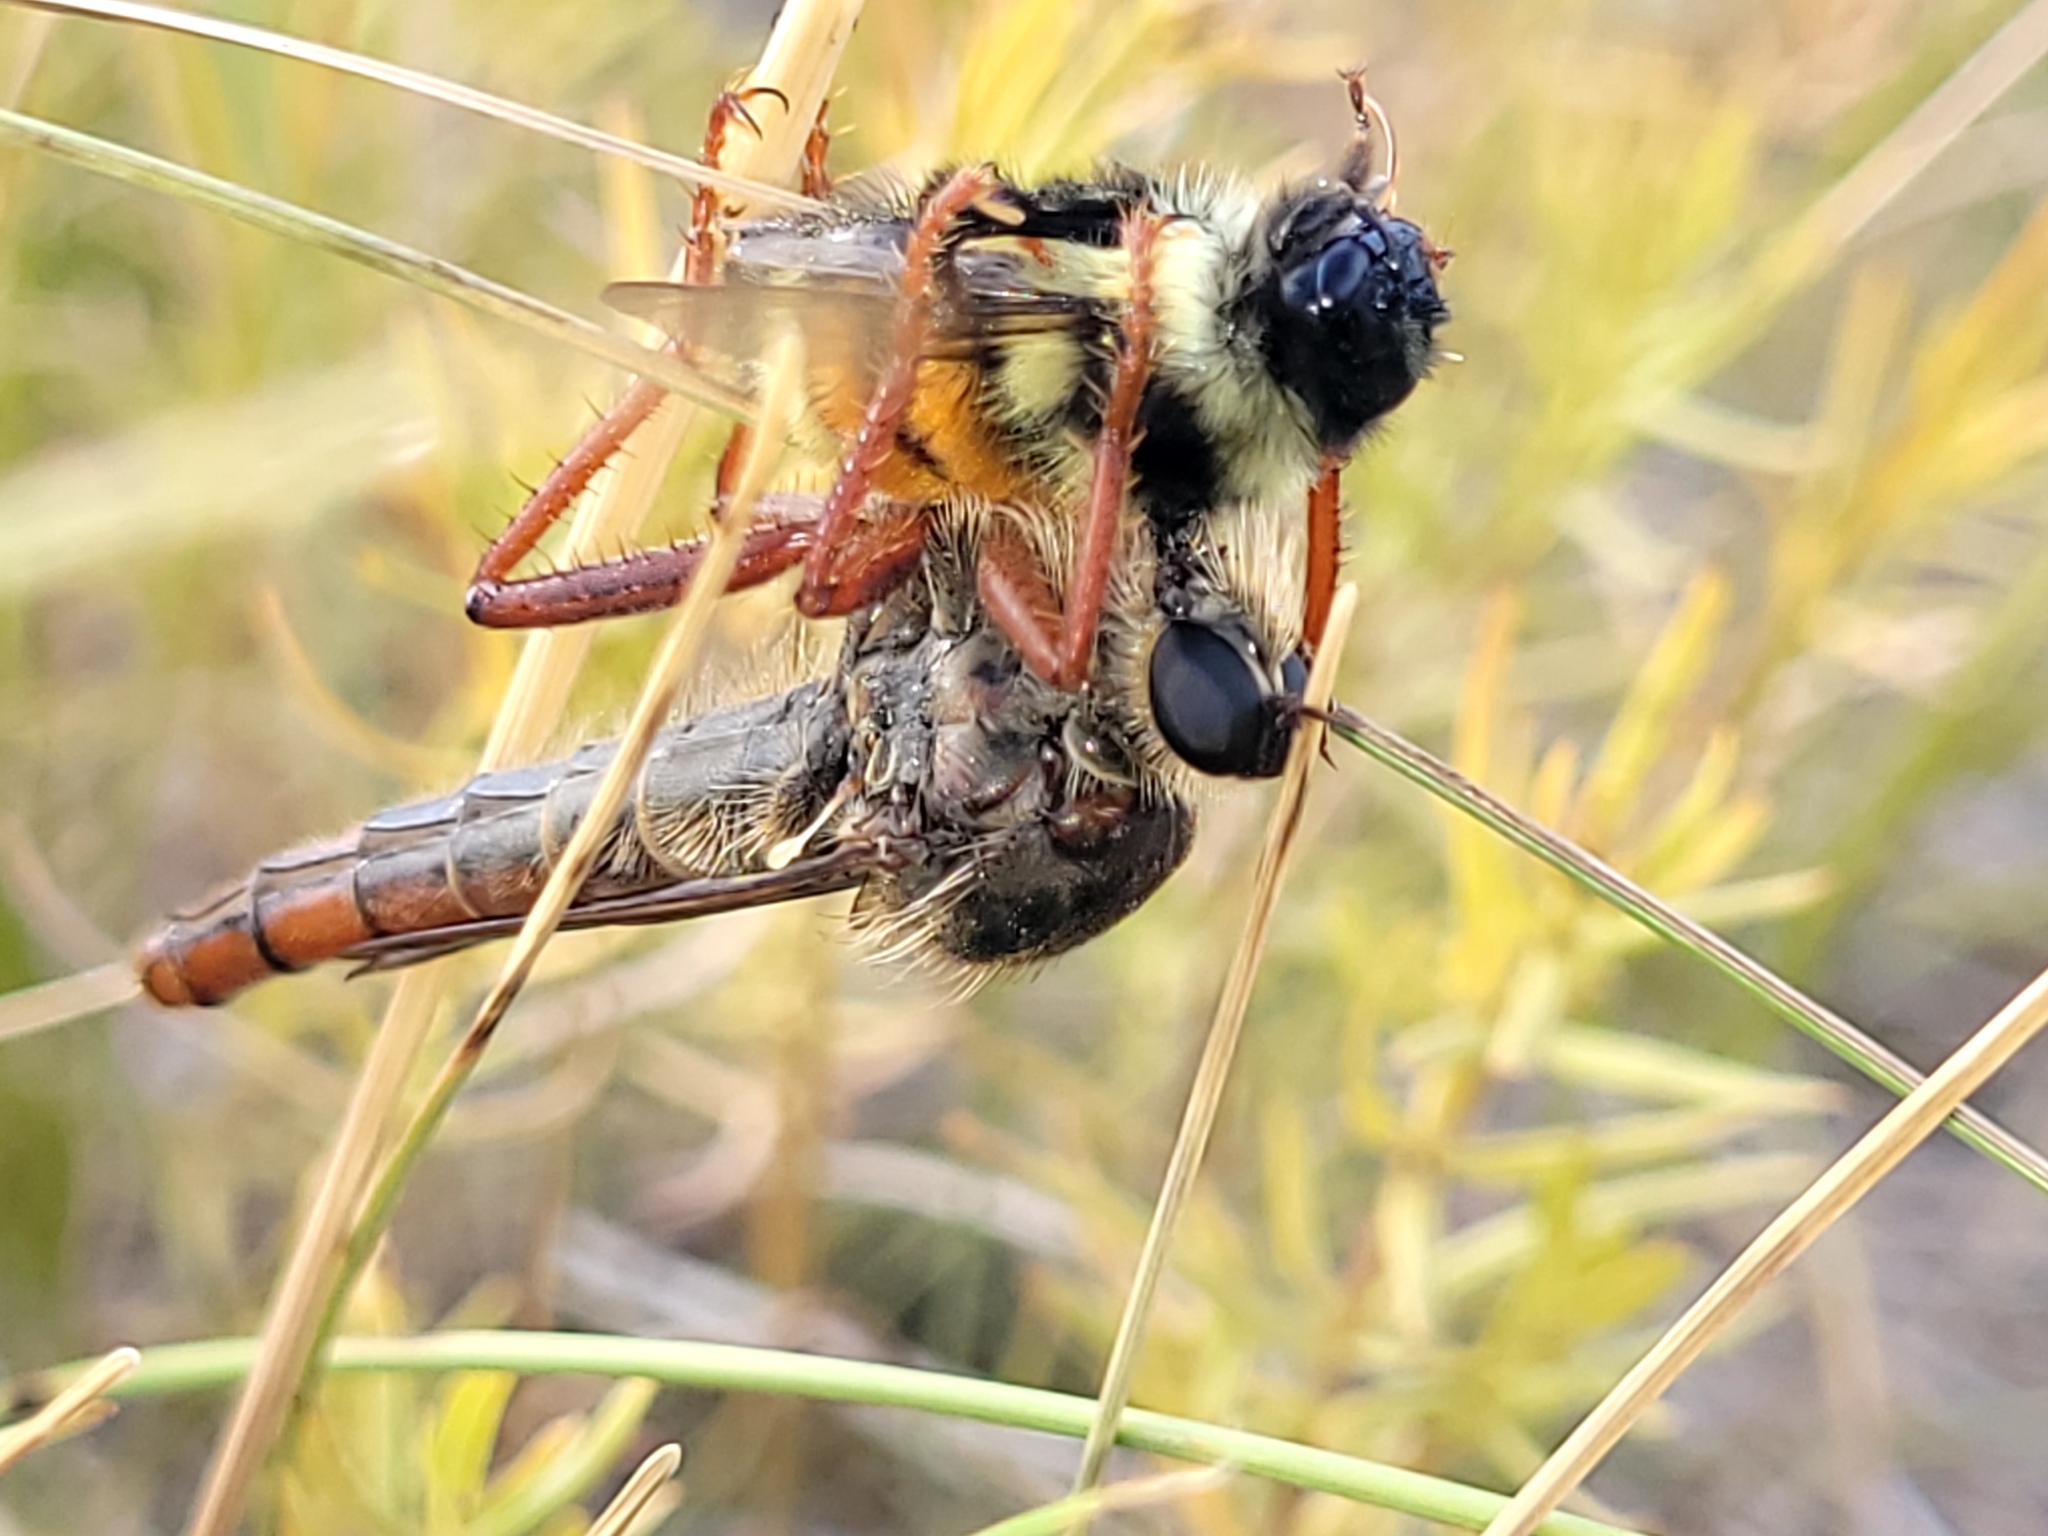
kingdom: Animalia
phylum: Arthropoda
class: Insecta
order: Diptera
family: Asilidae
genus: Stenopogon
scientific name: Stenopogon inquinatus
